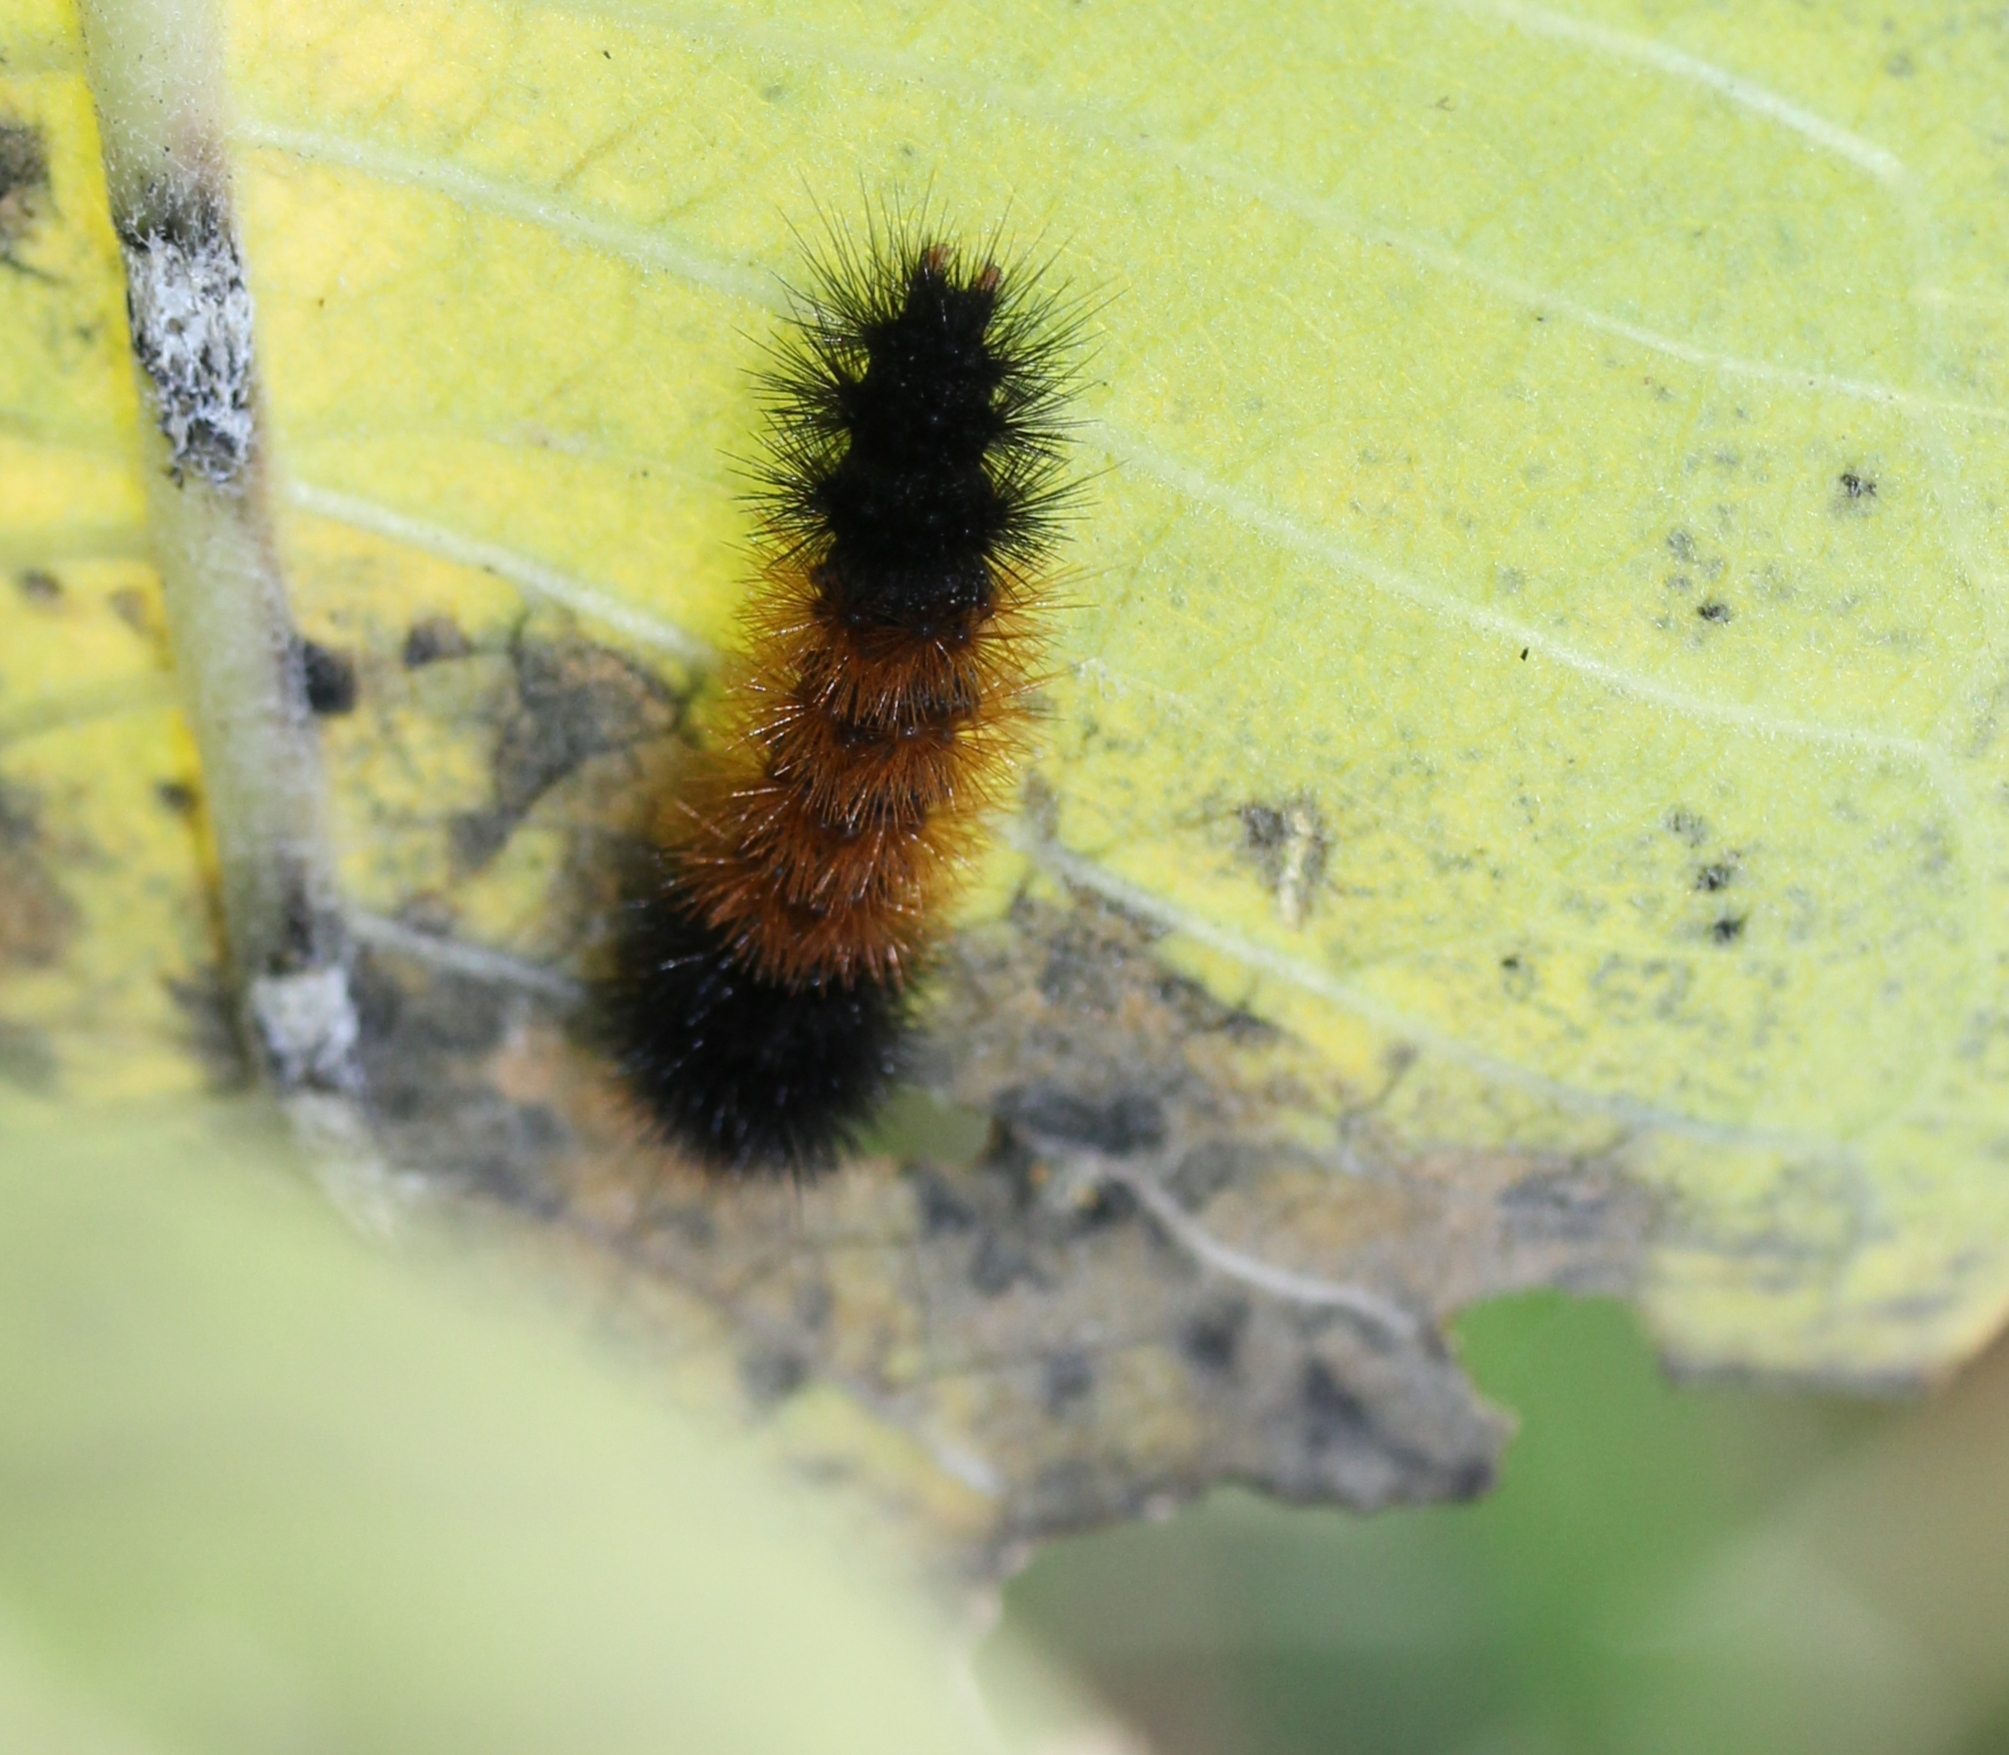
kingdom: Animalia
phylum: Arthropoda
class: Insecta
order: Lepidoptera
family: Erebidae
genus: Pyrrharctia
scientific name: Pyrrharctia isabella
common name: Isabella tiger moth
